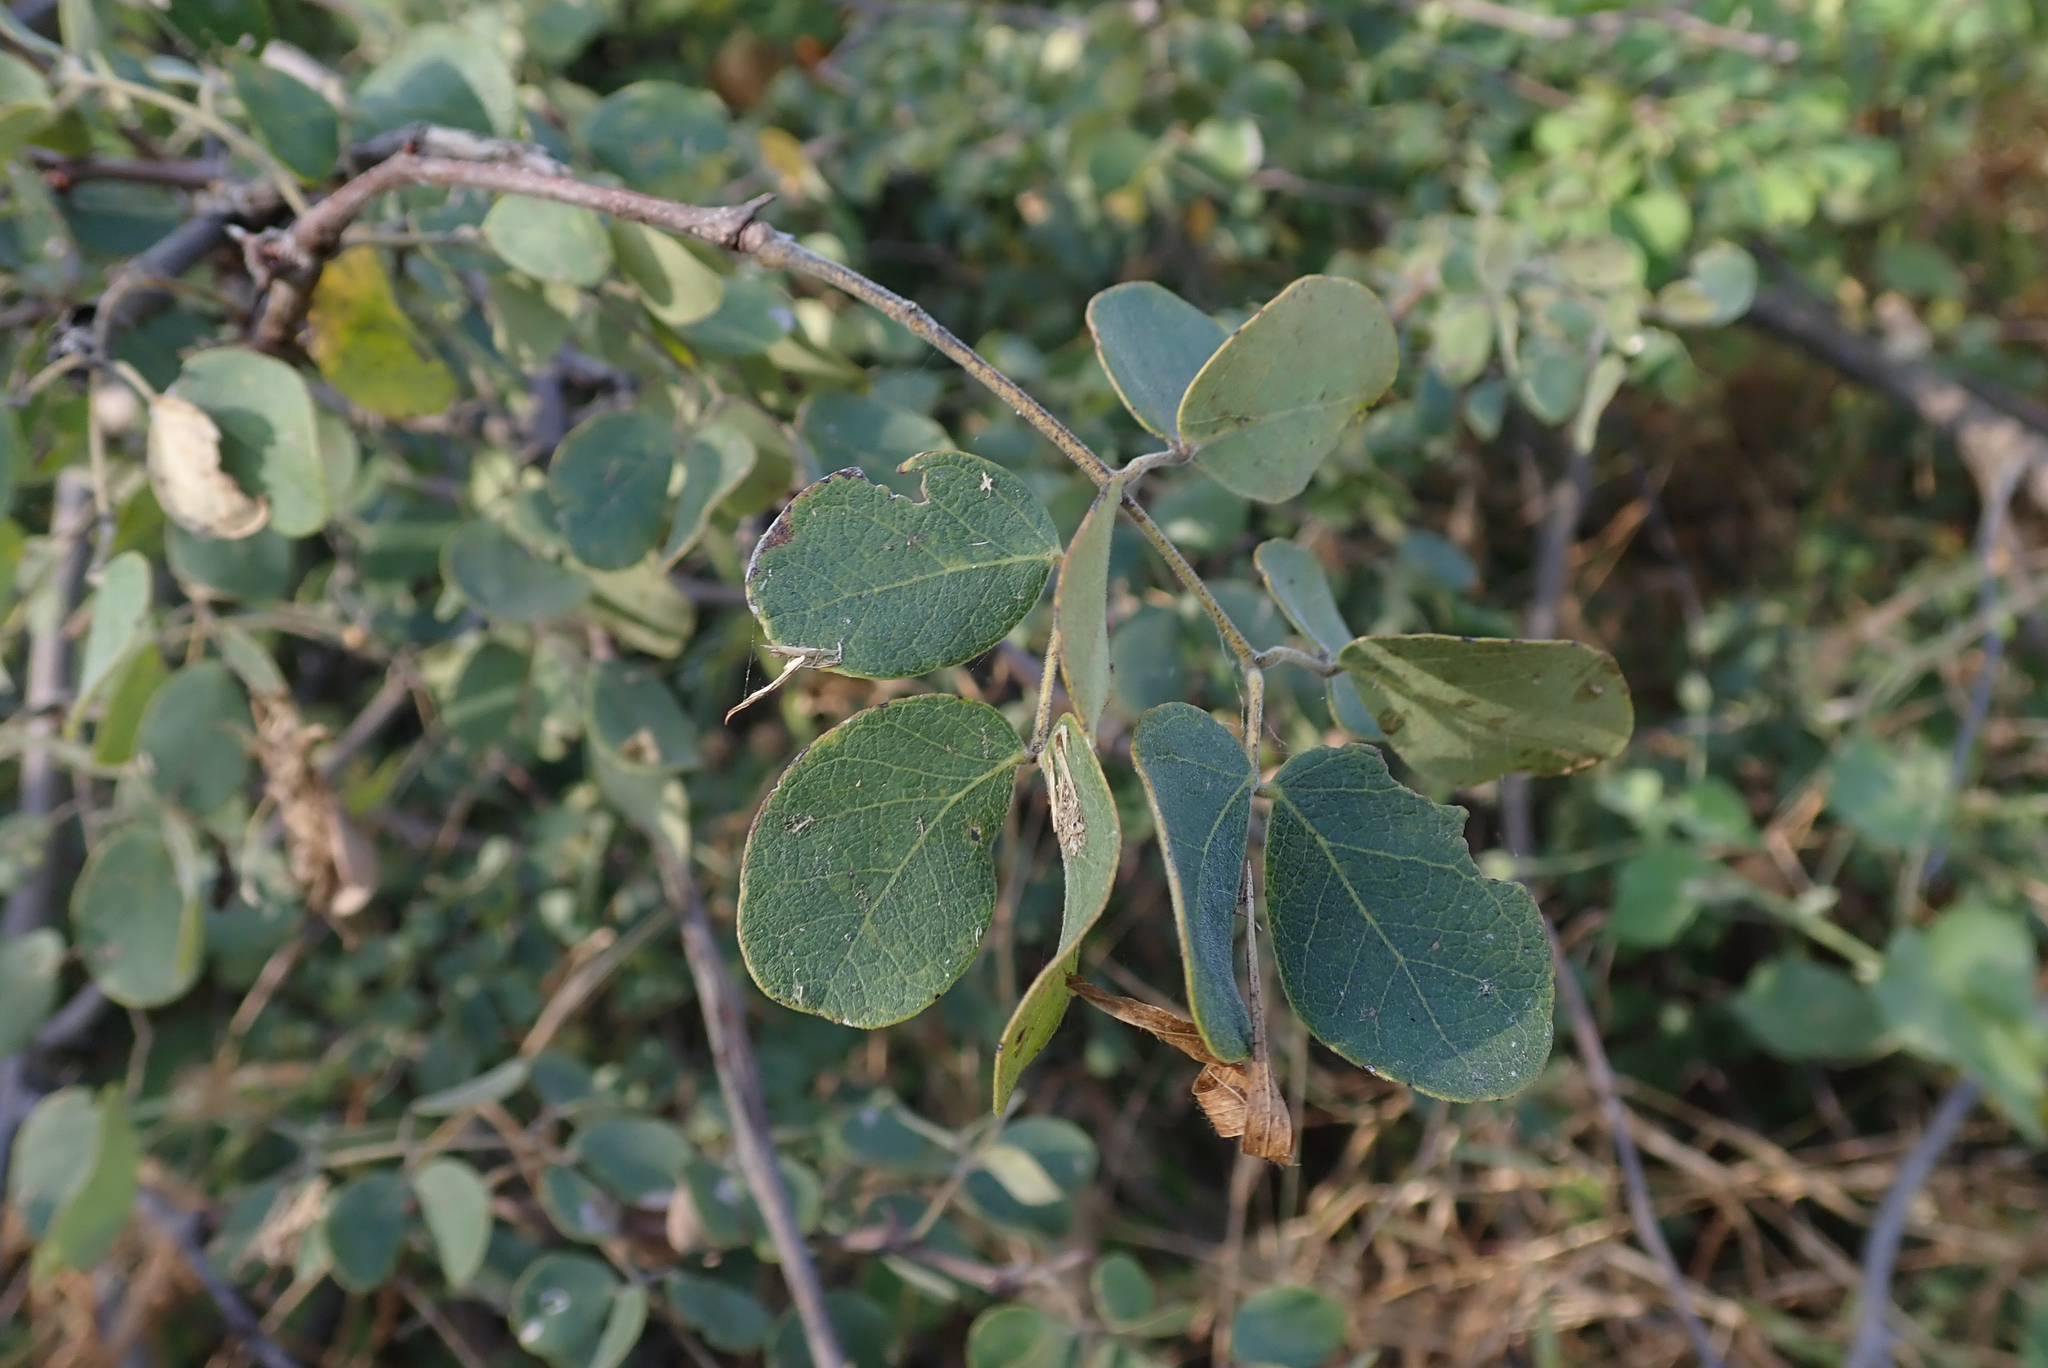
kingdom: Plantae
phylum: Tracheophyta
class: Magnoliopsida
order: Fabales
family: Fabaceae
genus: Senegalia
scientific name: Senegalia nigrescens
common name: Knobthorn
